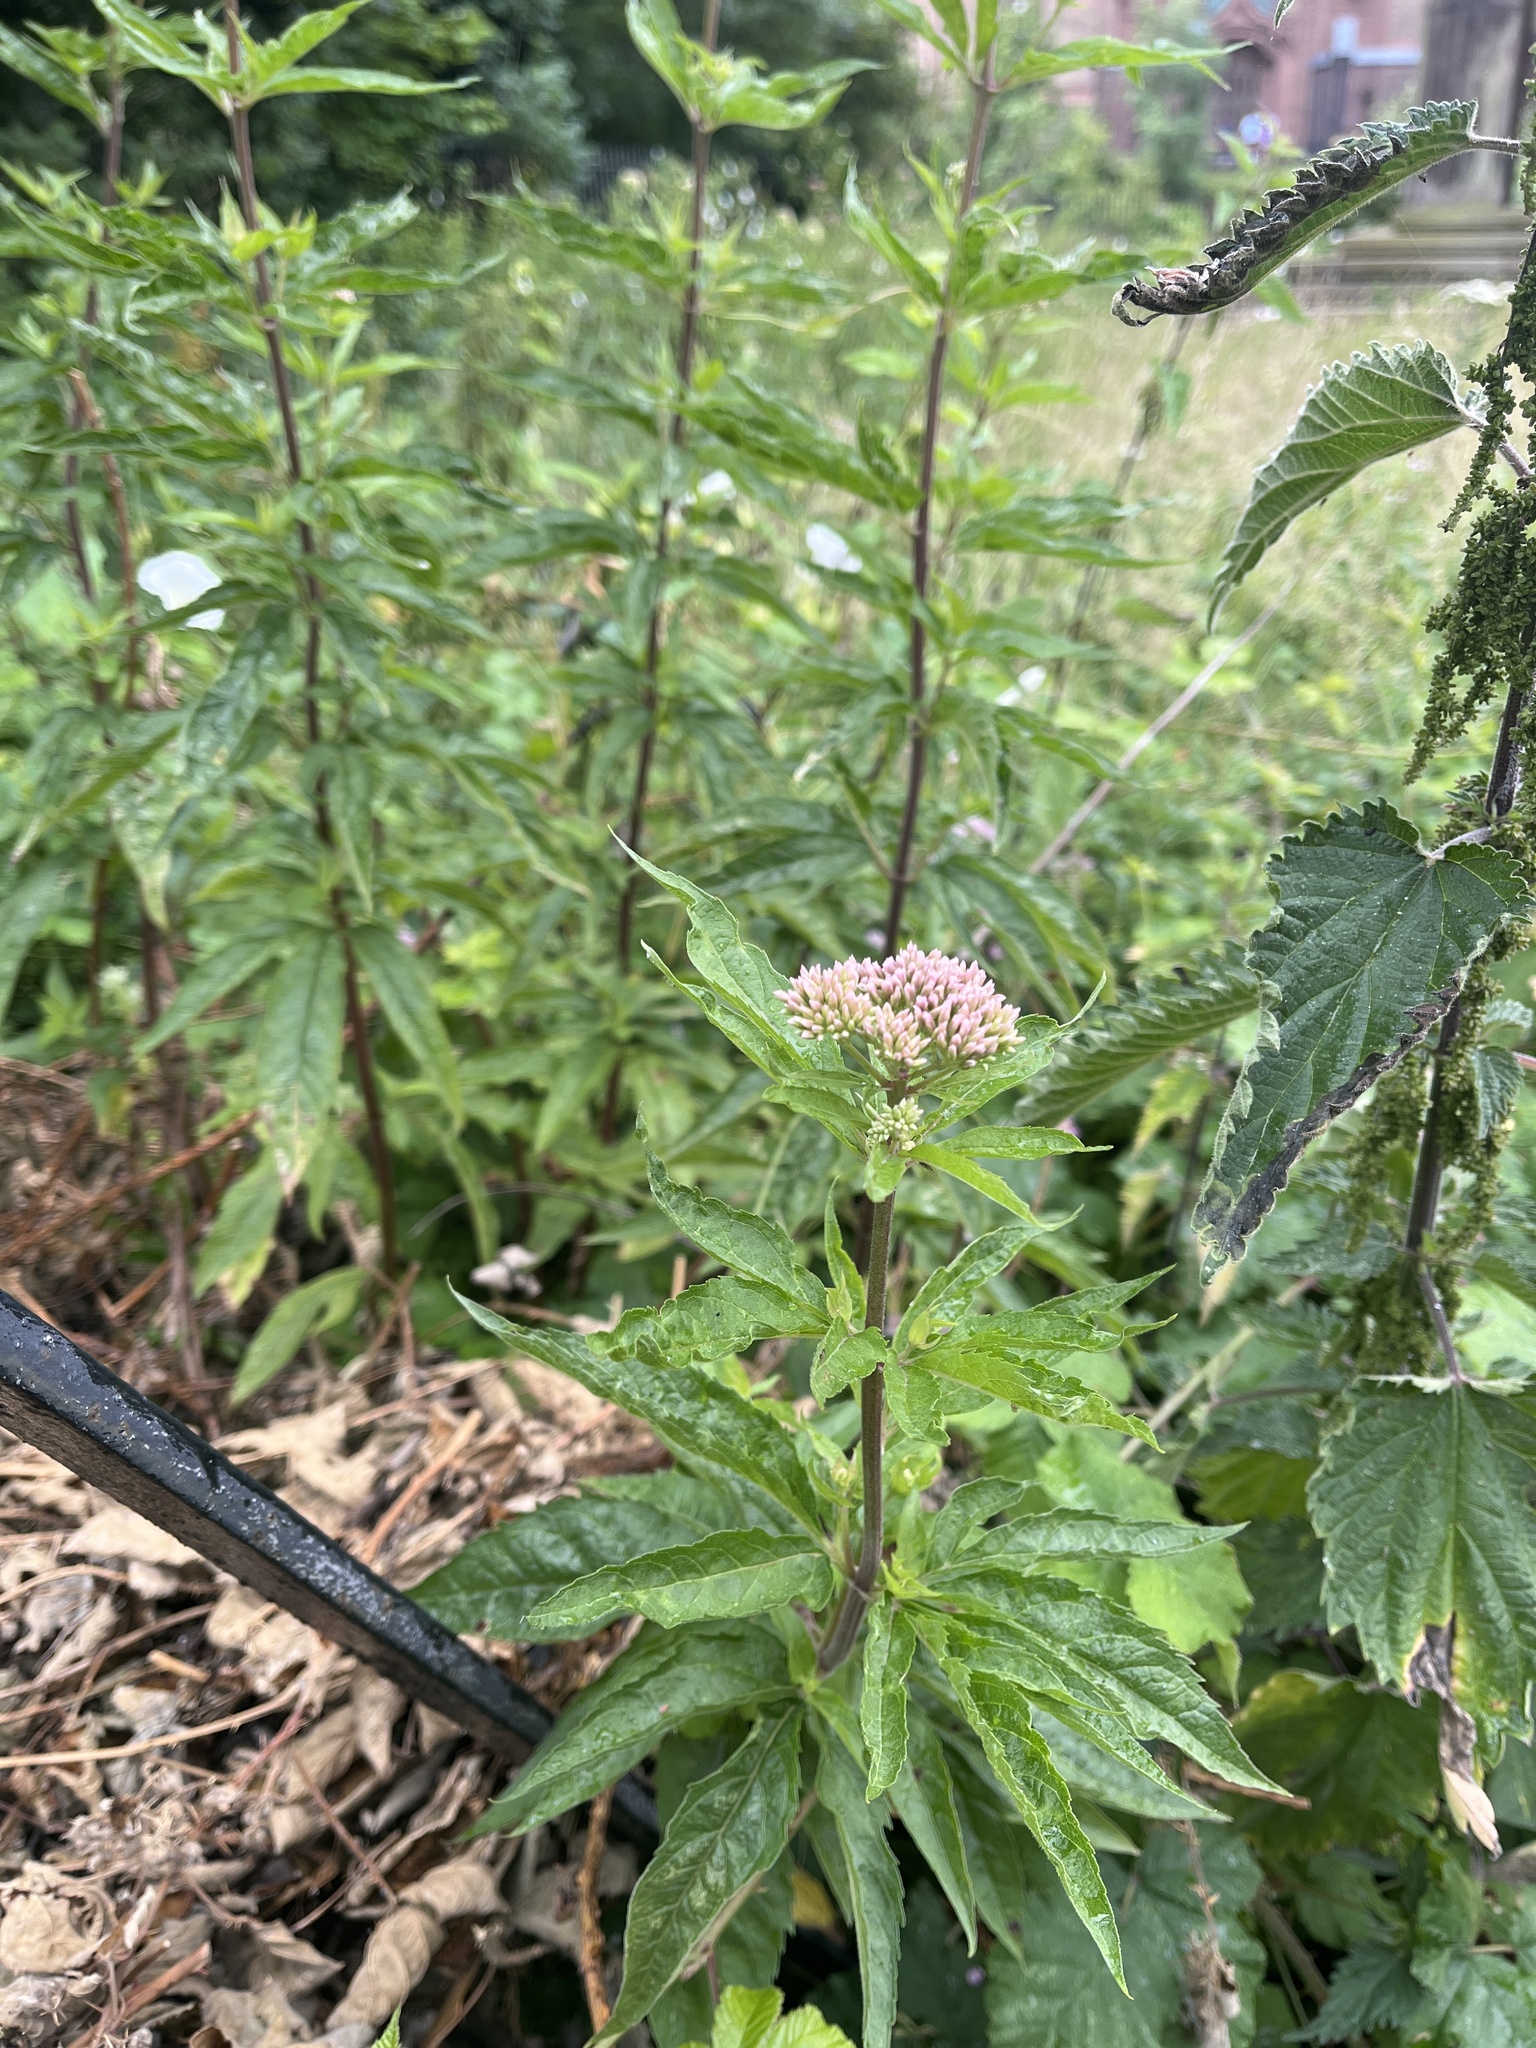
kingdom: Plantae
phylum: Tracheophyta
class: Magnoliopsida
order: Asterales
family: Asteraceae
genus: Eupatorium
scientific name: Eupatorium cannabinum
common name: Hemp-agrimony
